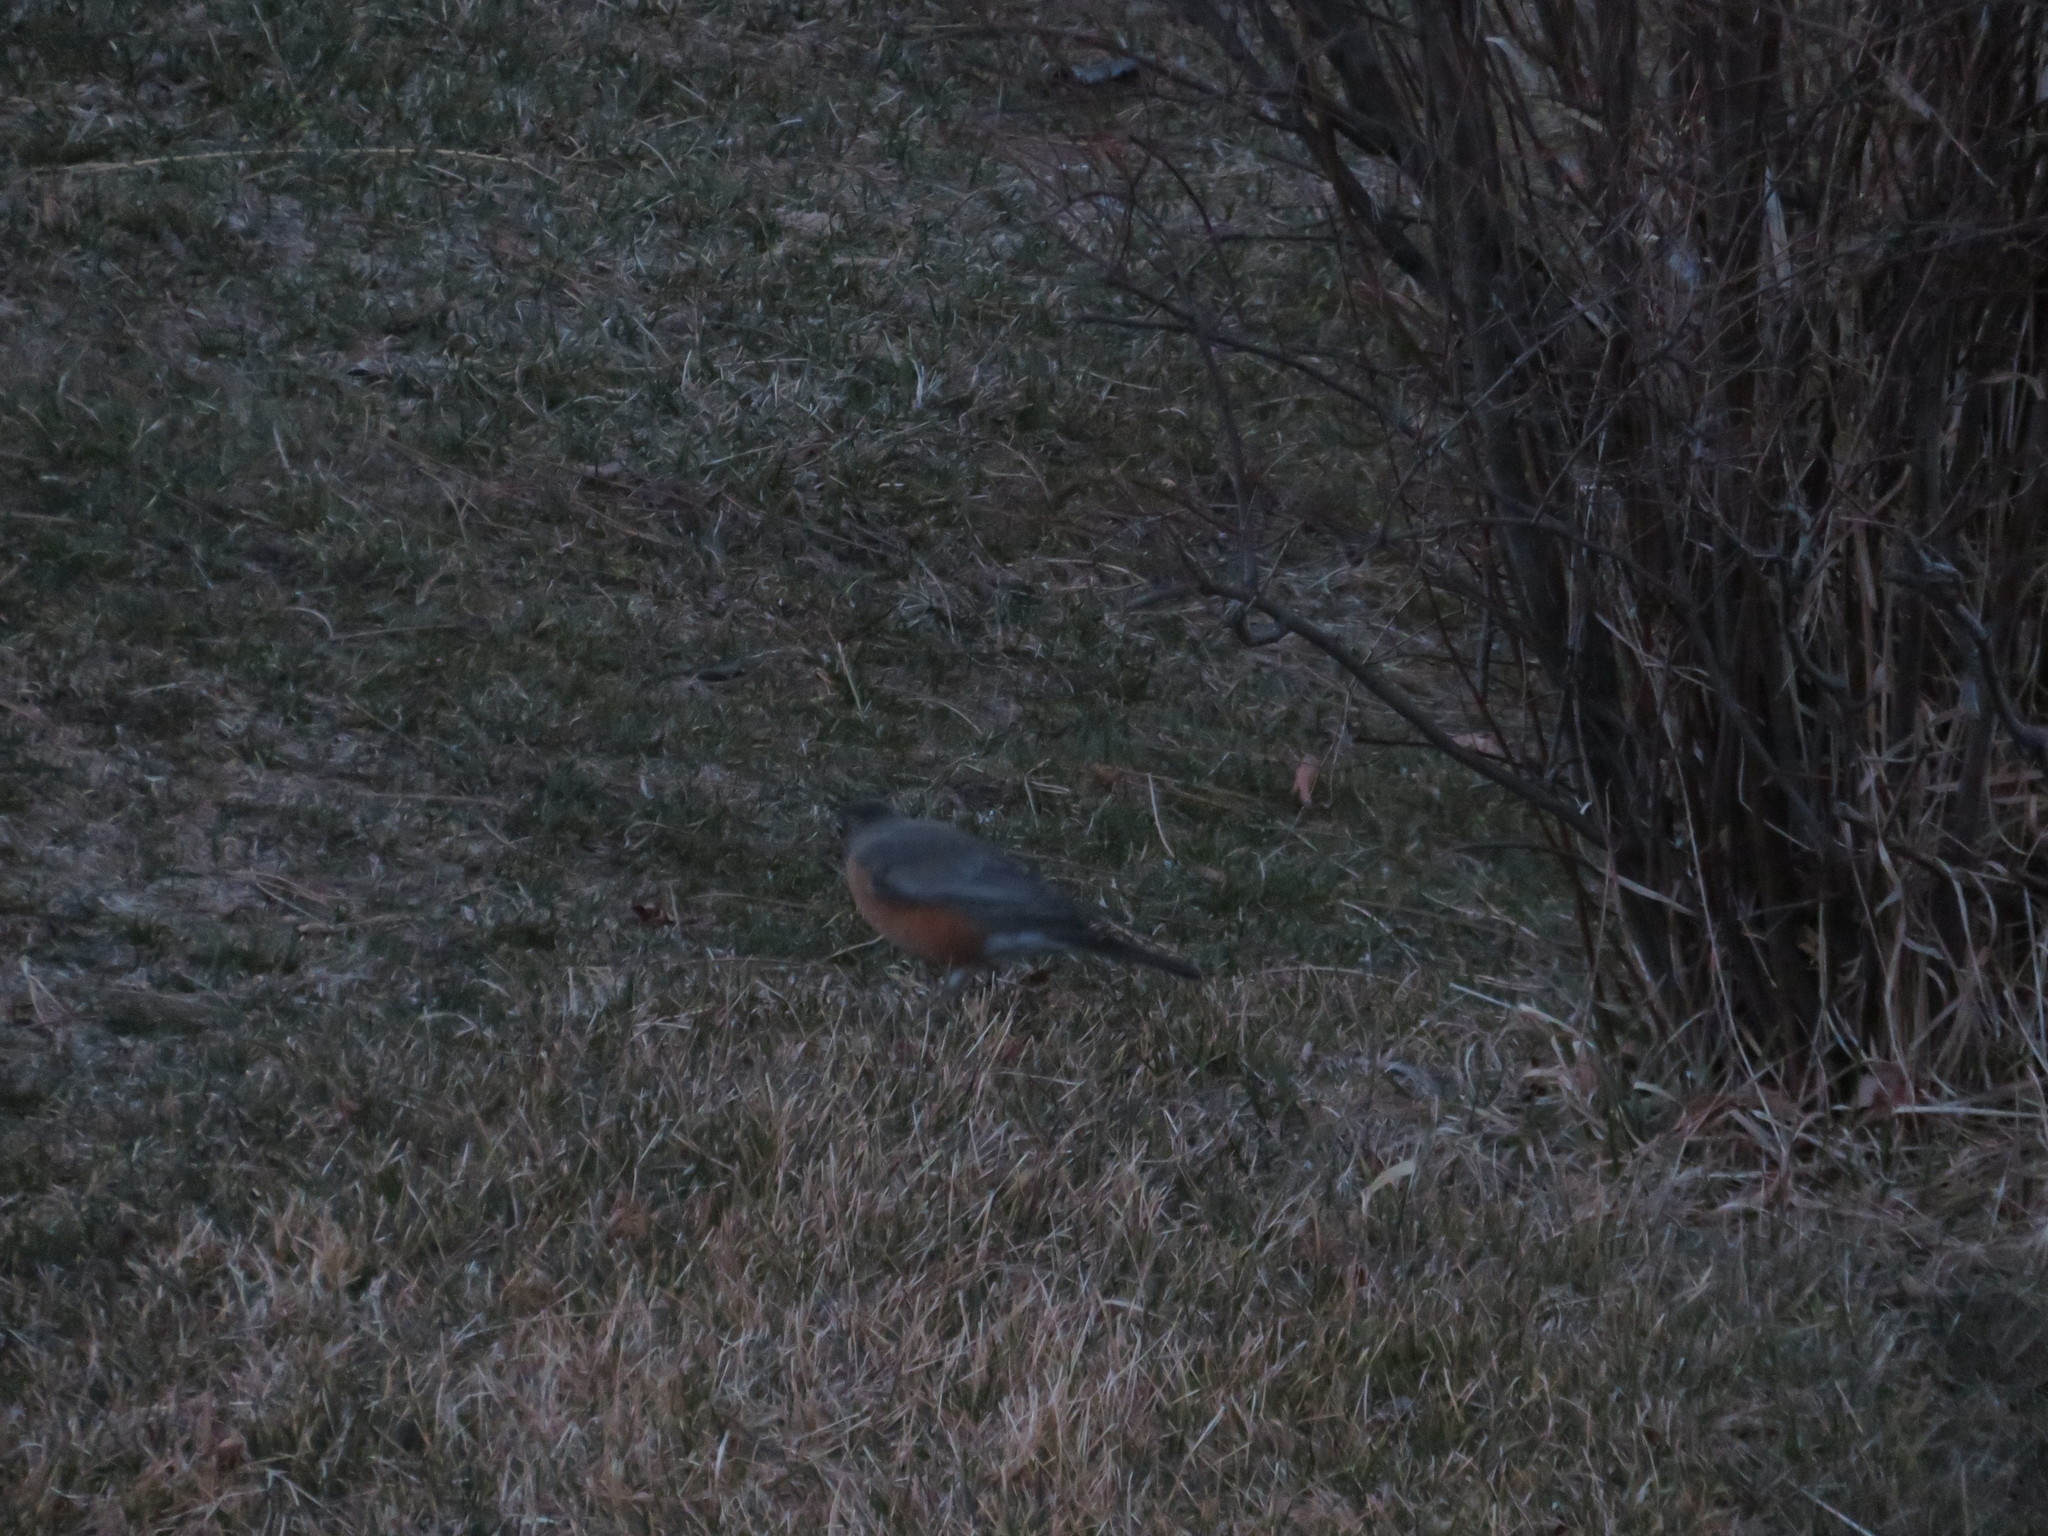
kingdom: Animalia
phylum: Chordata
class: Aves
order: Passeriformes
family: Turdidae
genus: Turdus
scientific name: Turdus migratorius
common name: American robin
